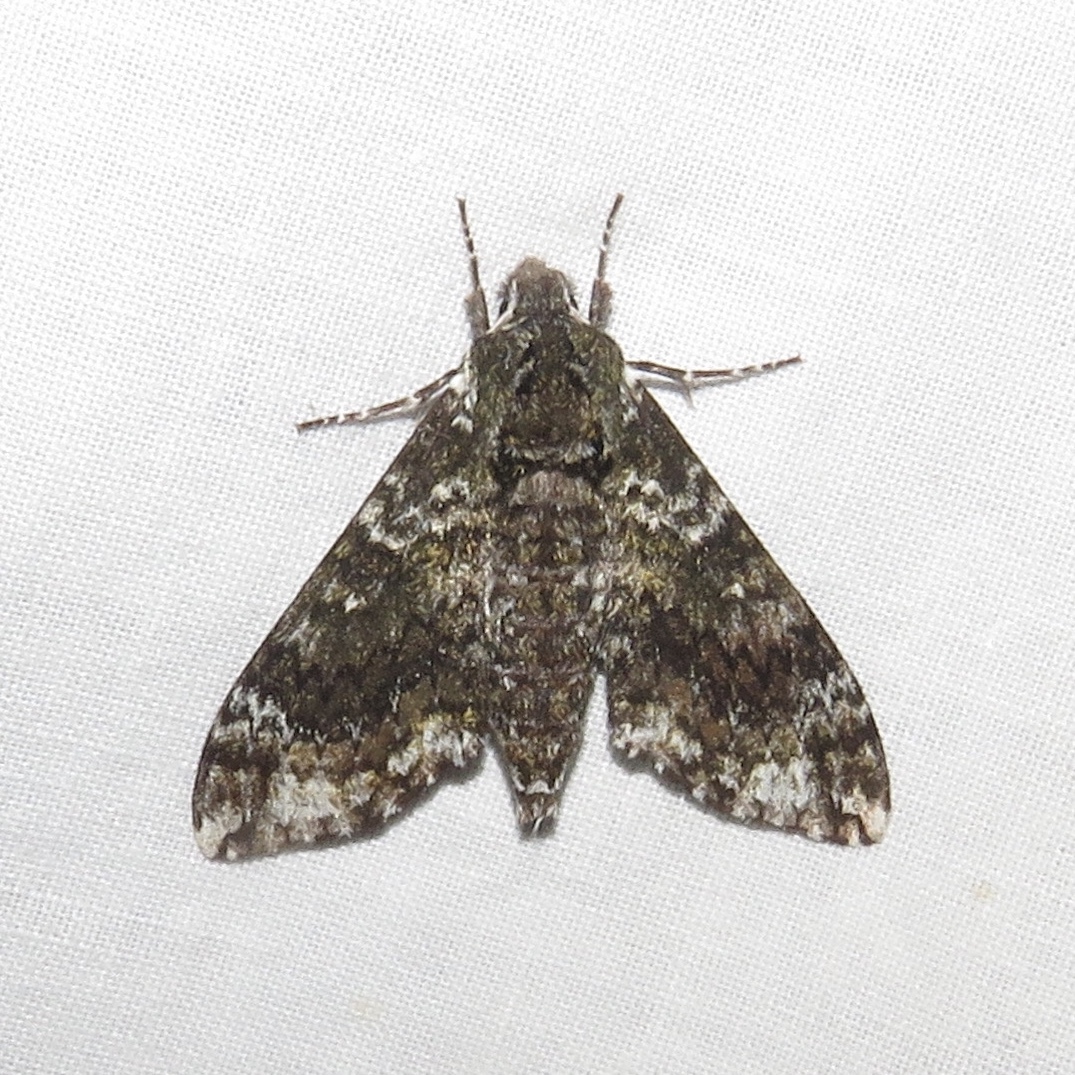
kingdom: Animalia
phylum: Arthropoda
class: Insecta
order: Lepidoptera
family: Sphingidae
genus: Dolba
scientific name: Dolba hyloeus
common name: Pawpaw sphinx
